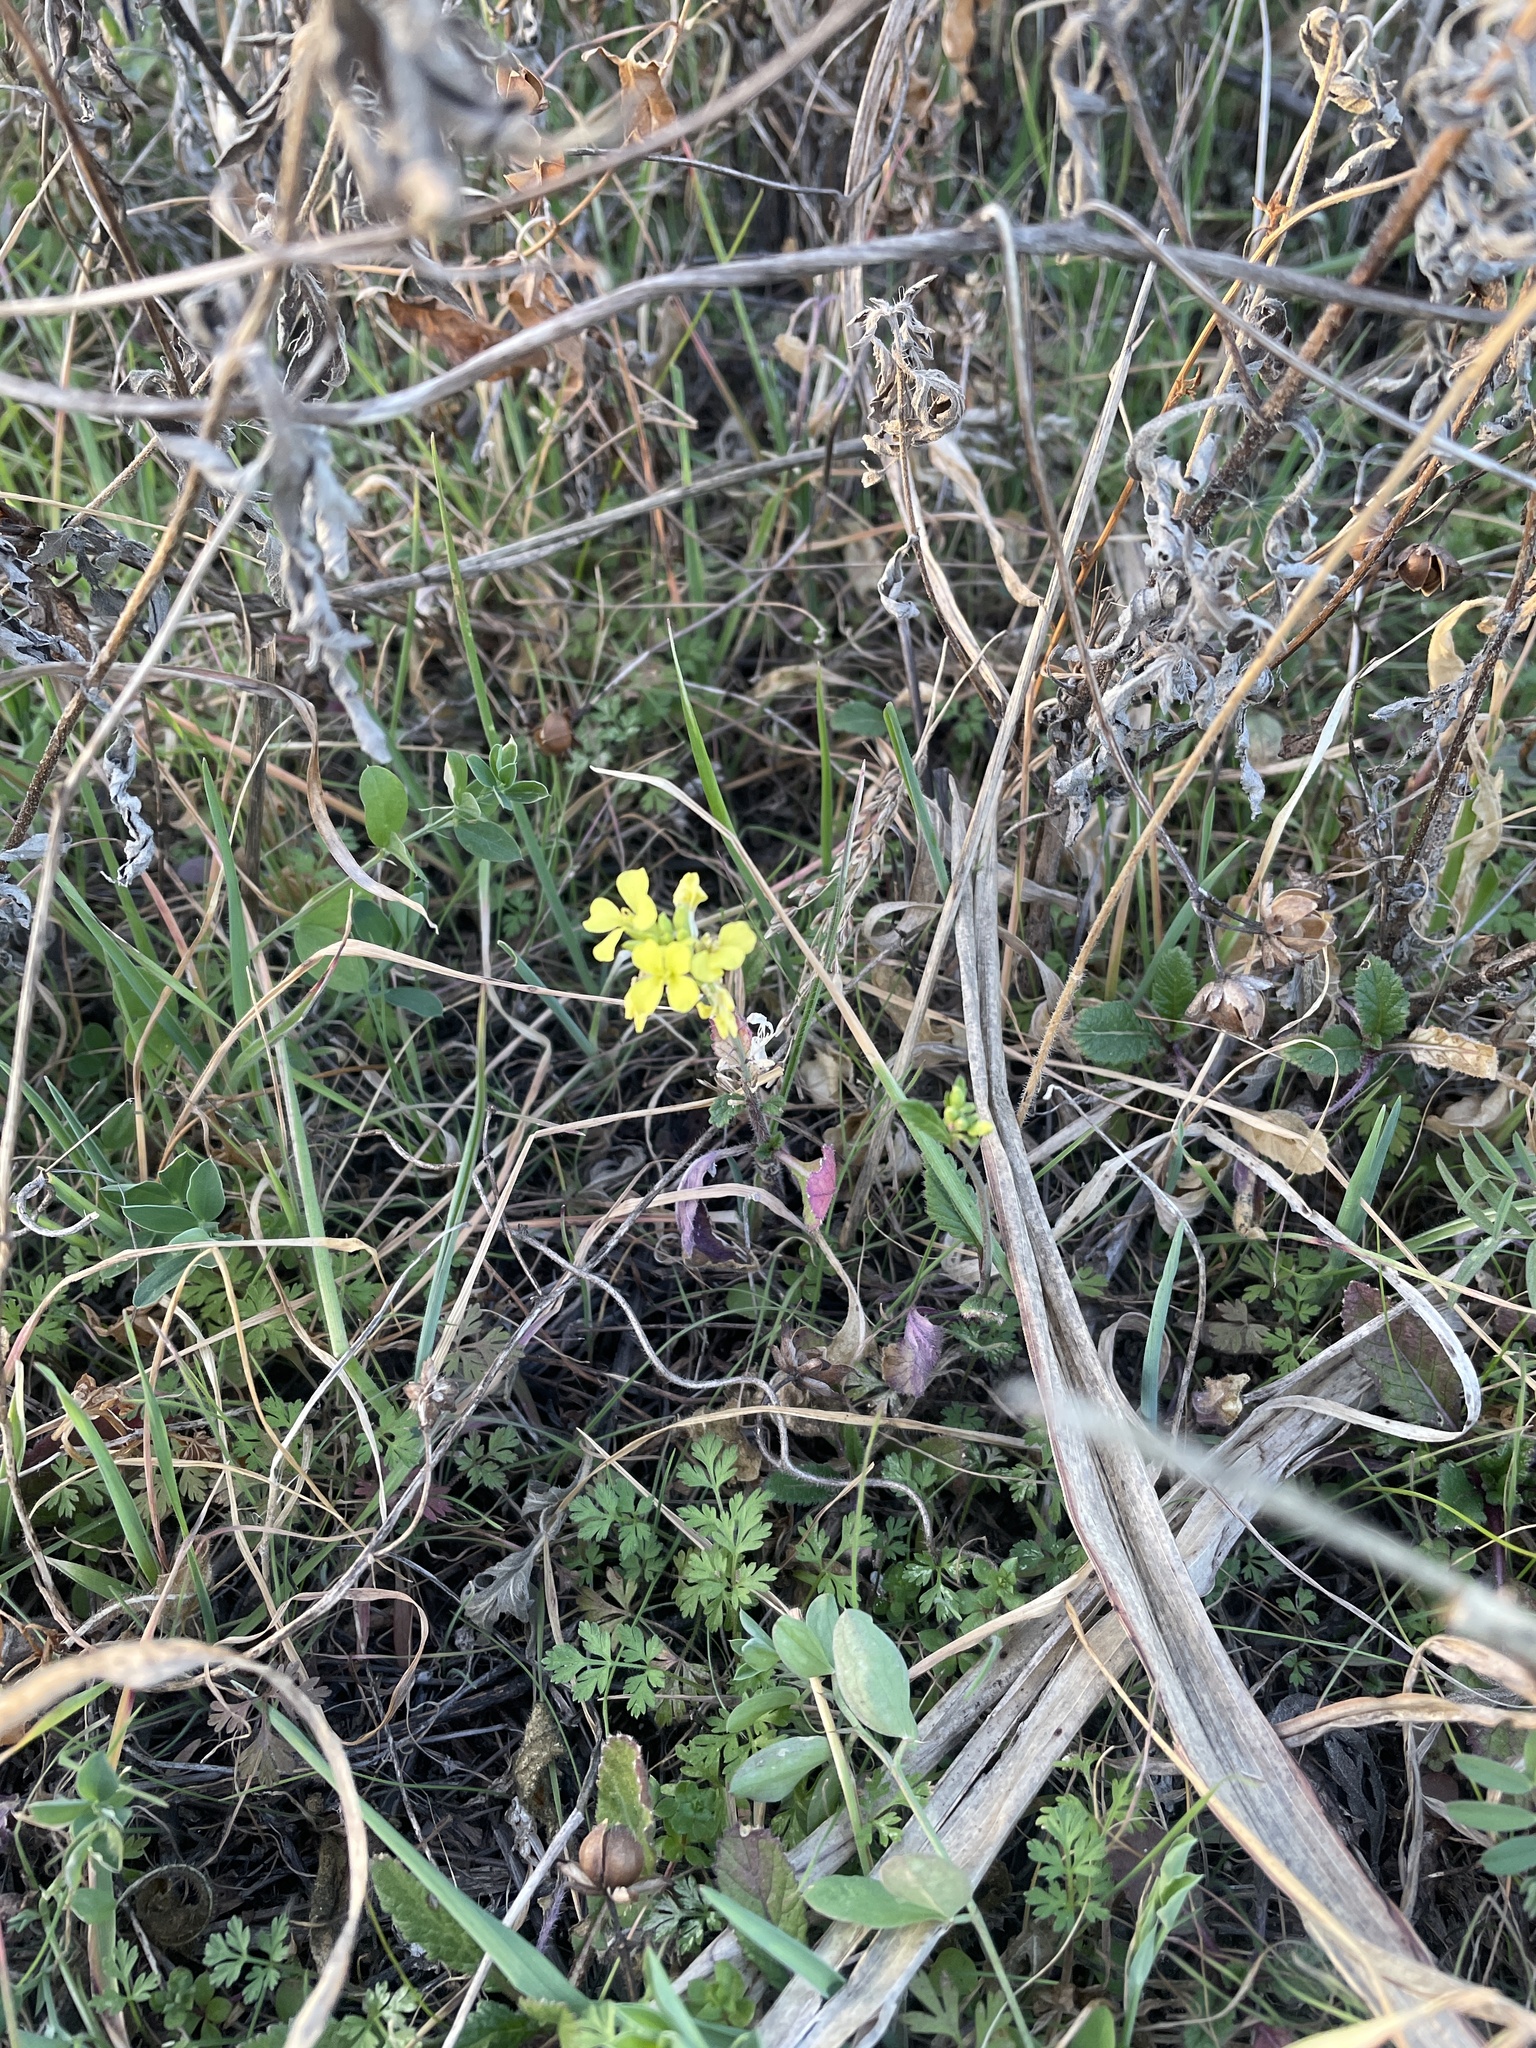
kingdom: Plantae
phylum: Tracheophyta
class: Magnoliopsida
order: Brassicales
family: Brassicaceae
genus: Rapistrum
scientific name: Rapistrum rugosum
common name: Annual bastardcabbage
